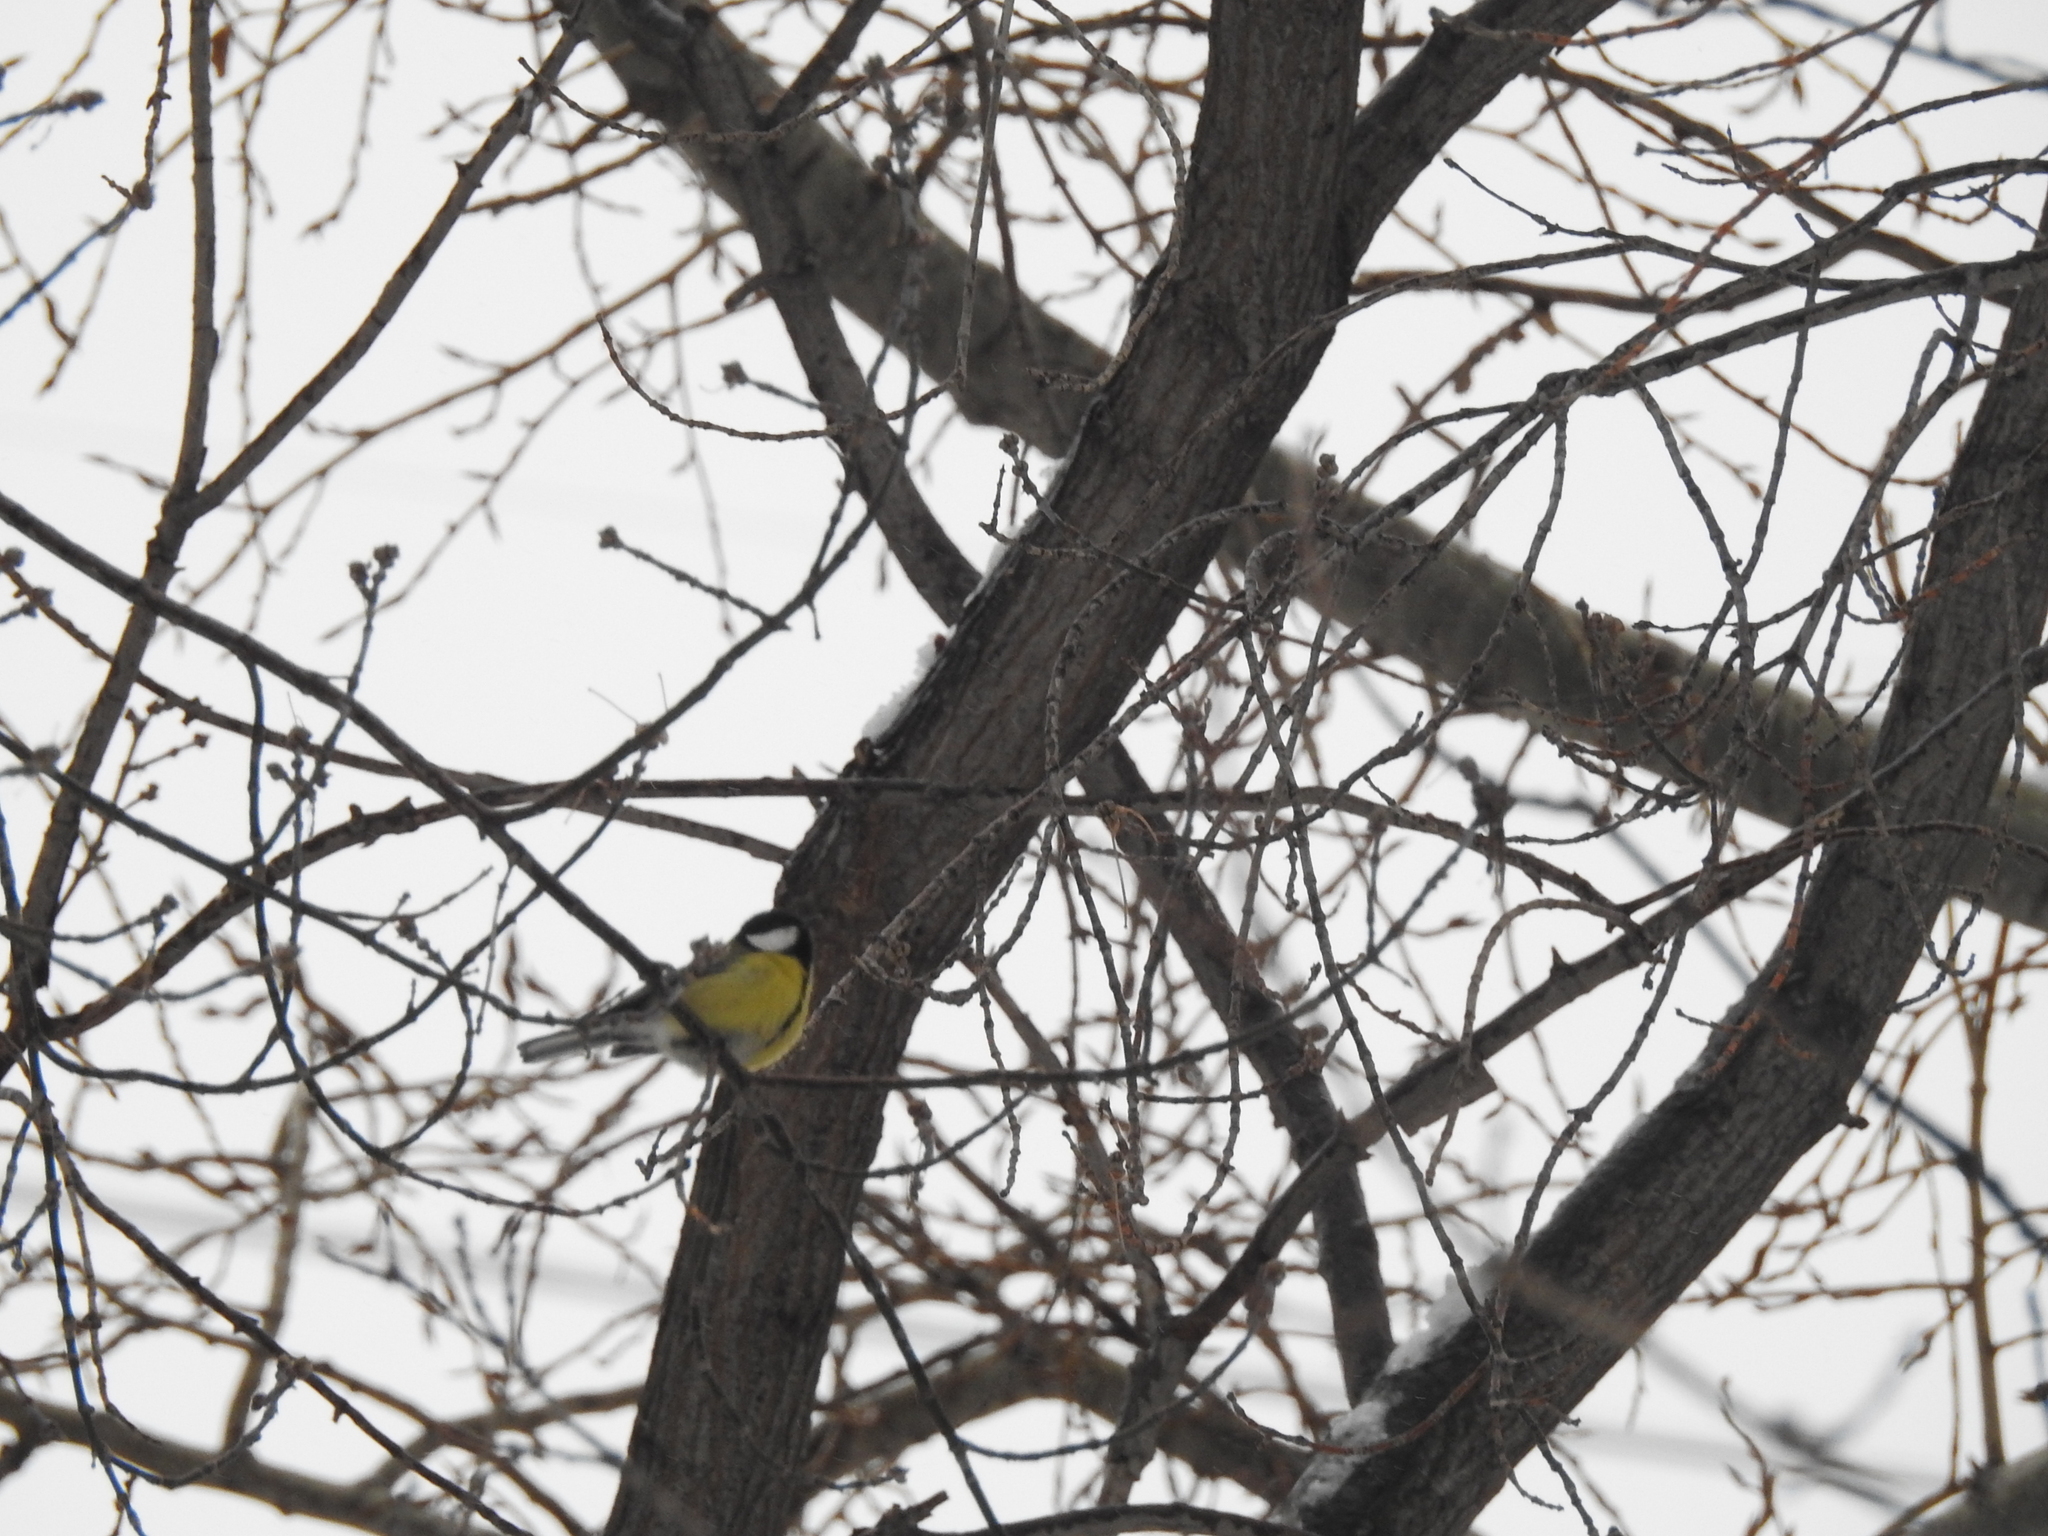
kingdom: Animalia
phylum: Chordata
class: Aves
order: Passeriformes
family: Paridae
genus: Parus
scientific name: Parus major
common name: Great tit
